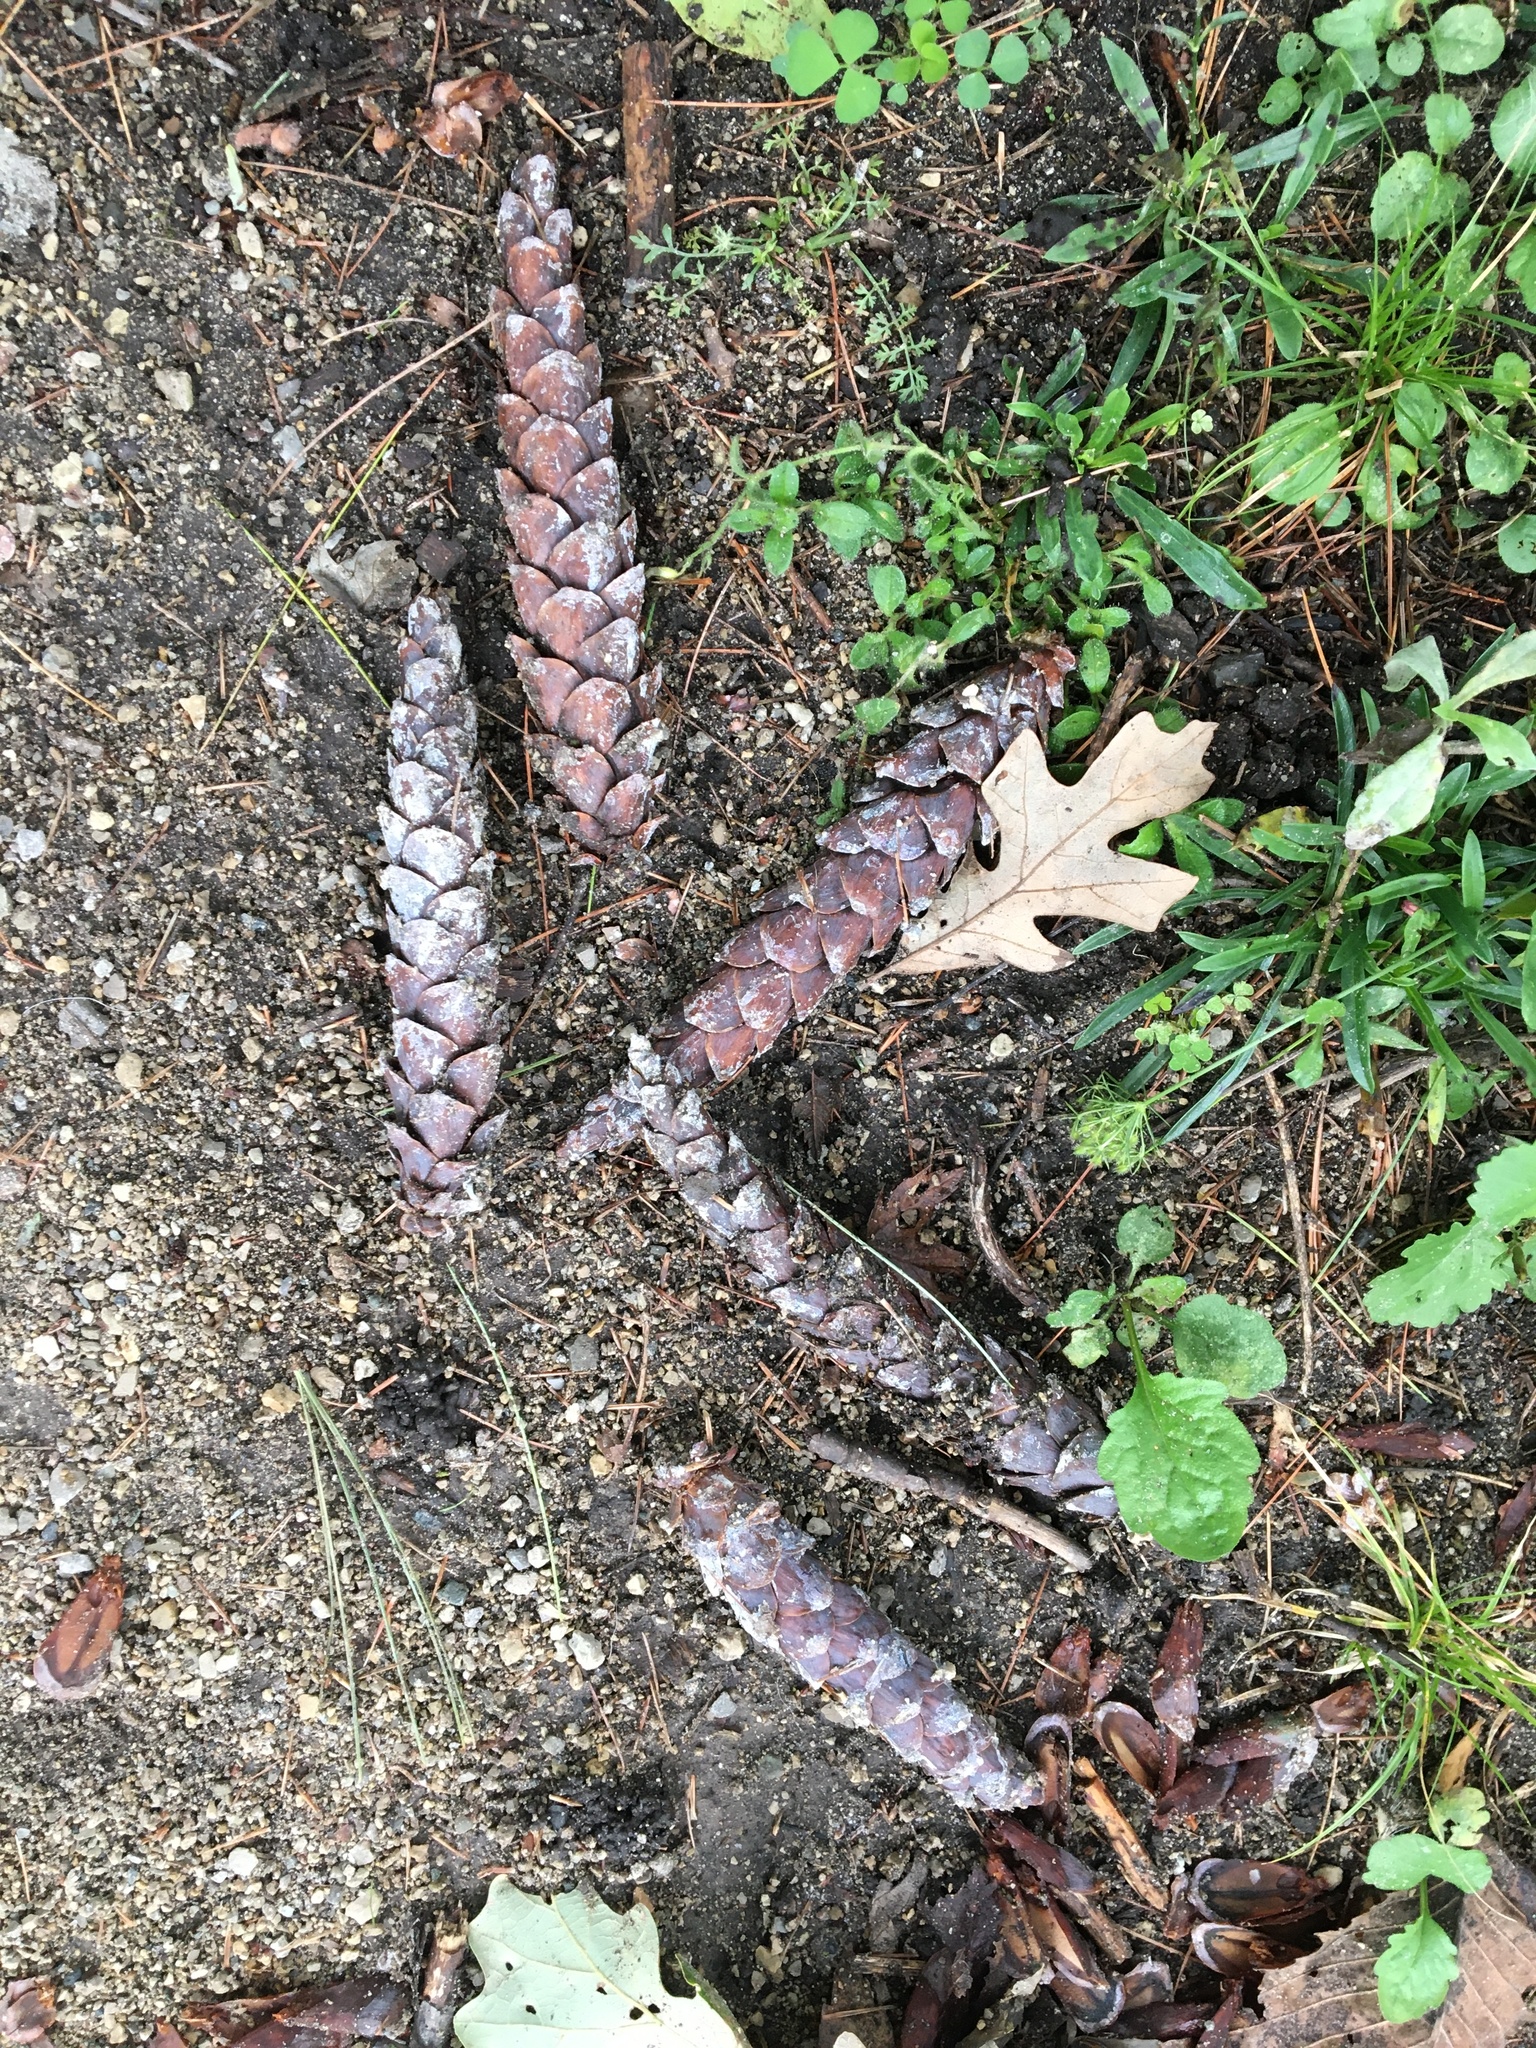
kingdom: Plantae
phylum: Tracheophyta
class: Pinopsida
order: Pinales
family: Pinaceae
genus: Pinus
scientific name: Pinus strobus
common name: Weymouth pine
